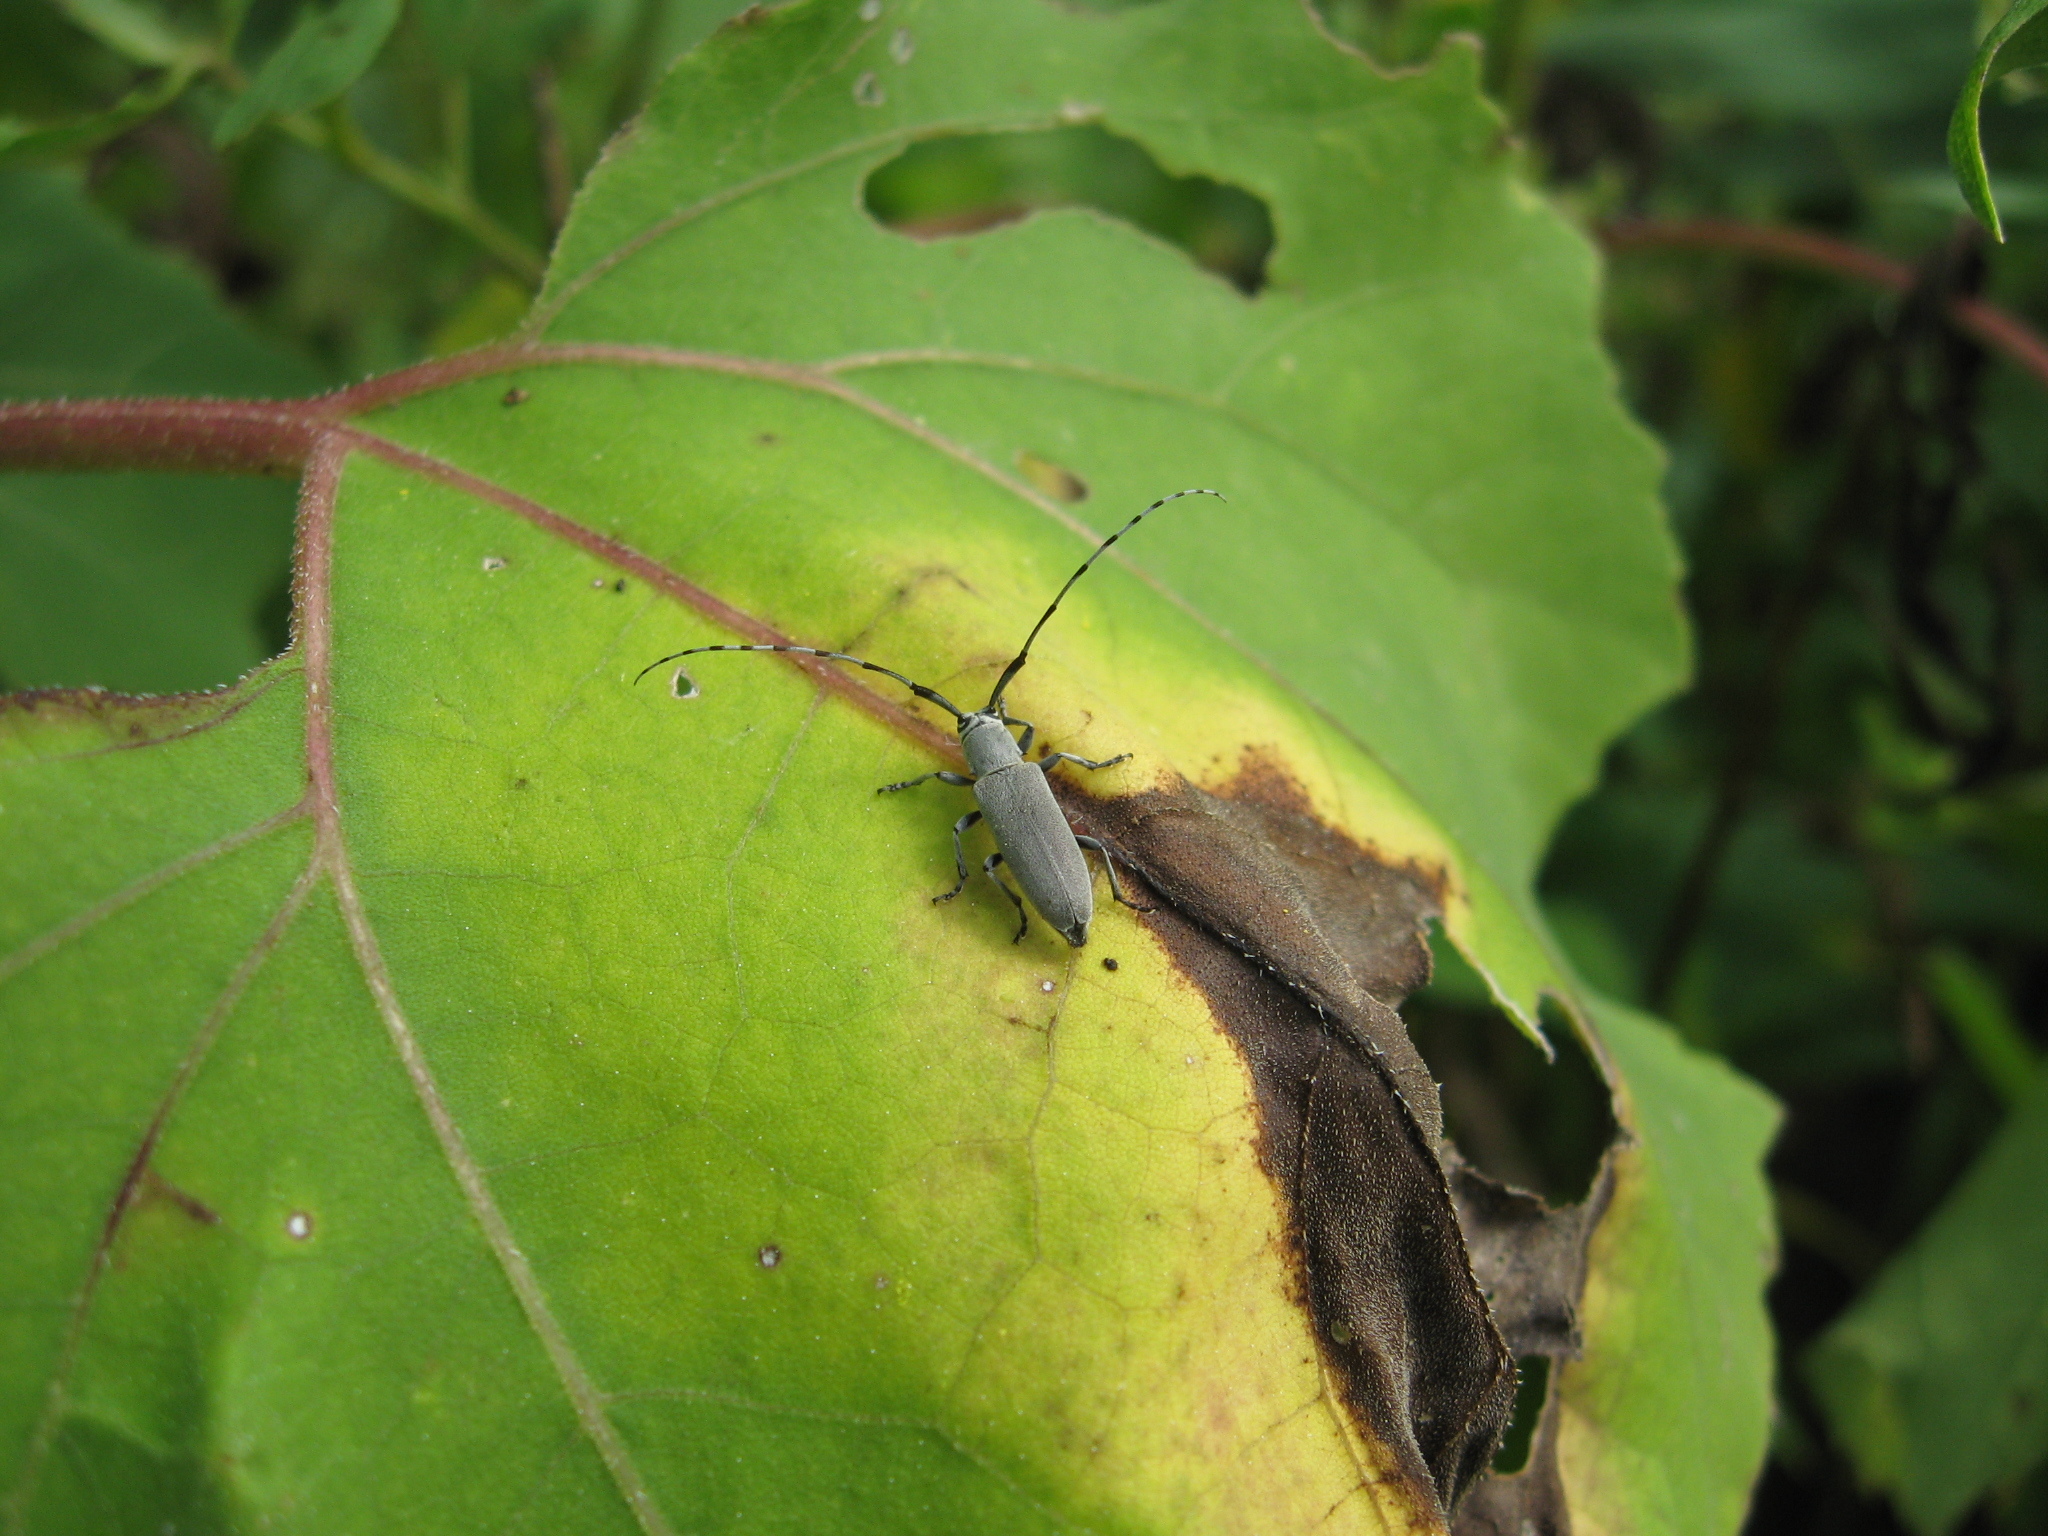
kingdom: Animalia
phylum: Arthropoda
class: Insecta
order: Coleoptera
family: Cerambycidae
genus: Dectes
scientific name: Dectes texanus
